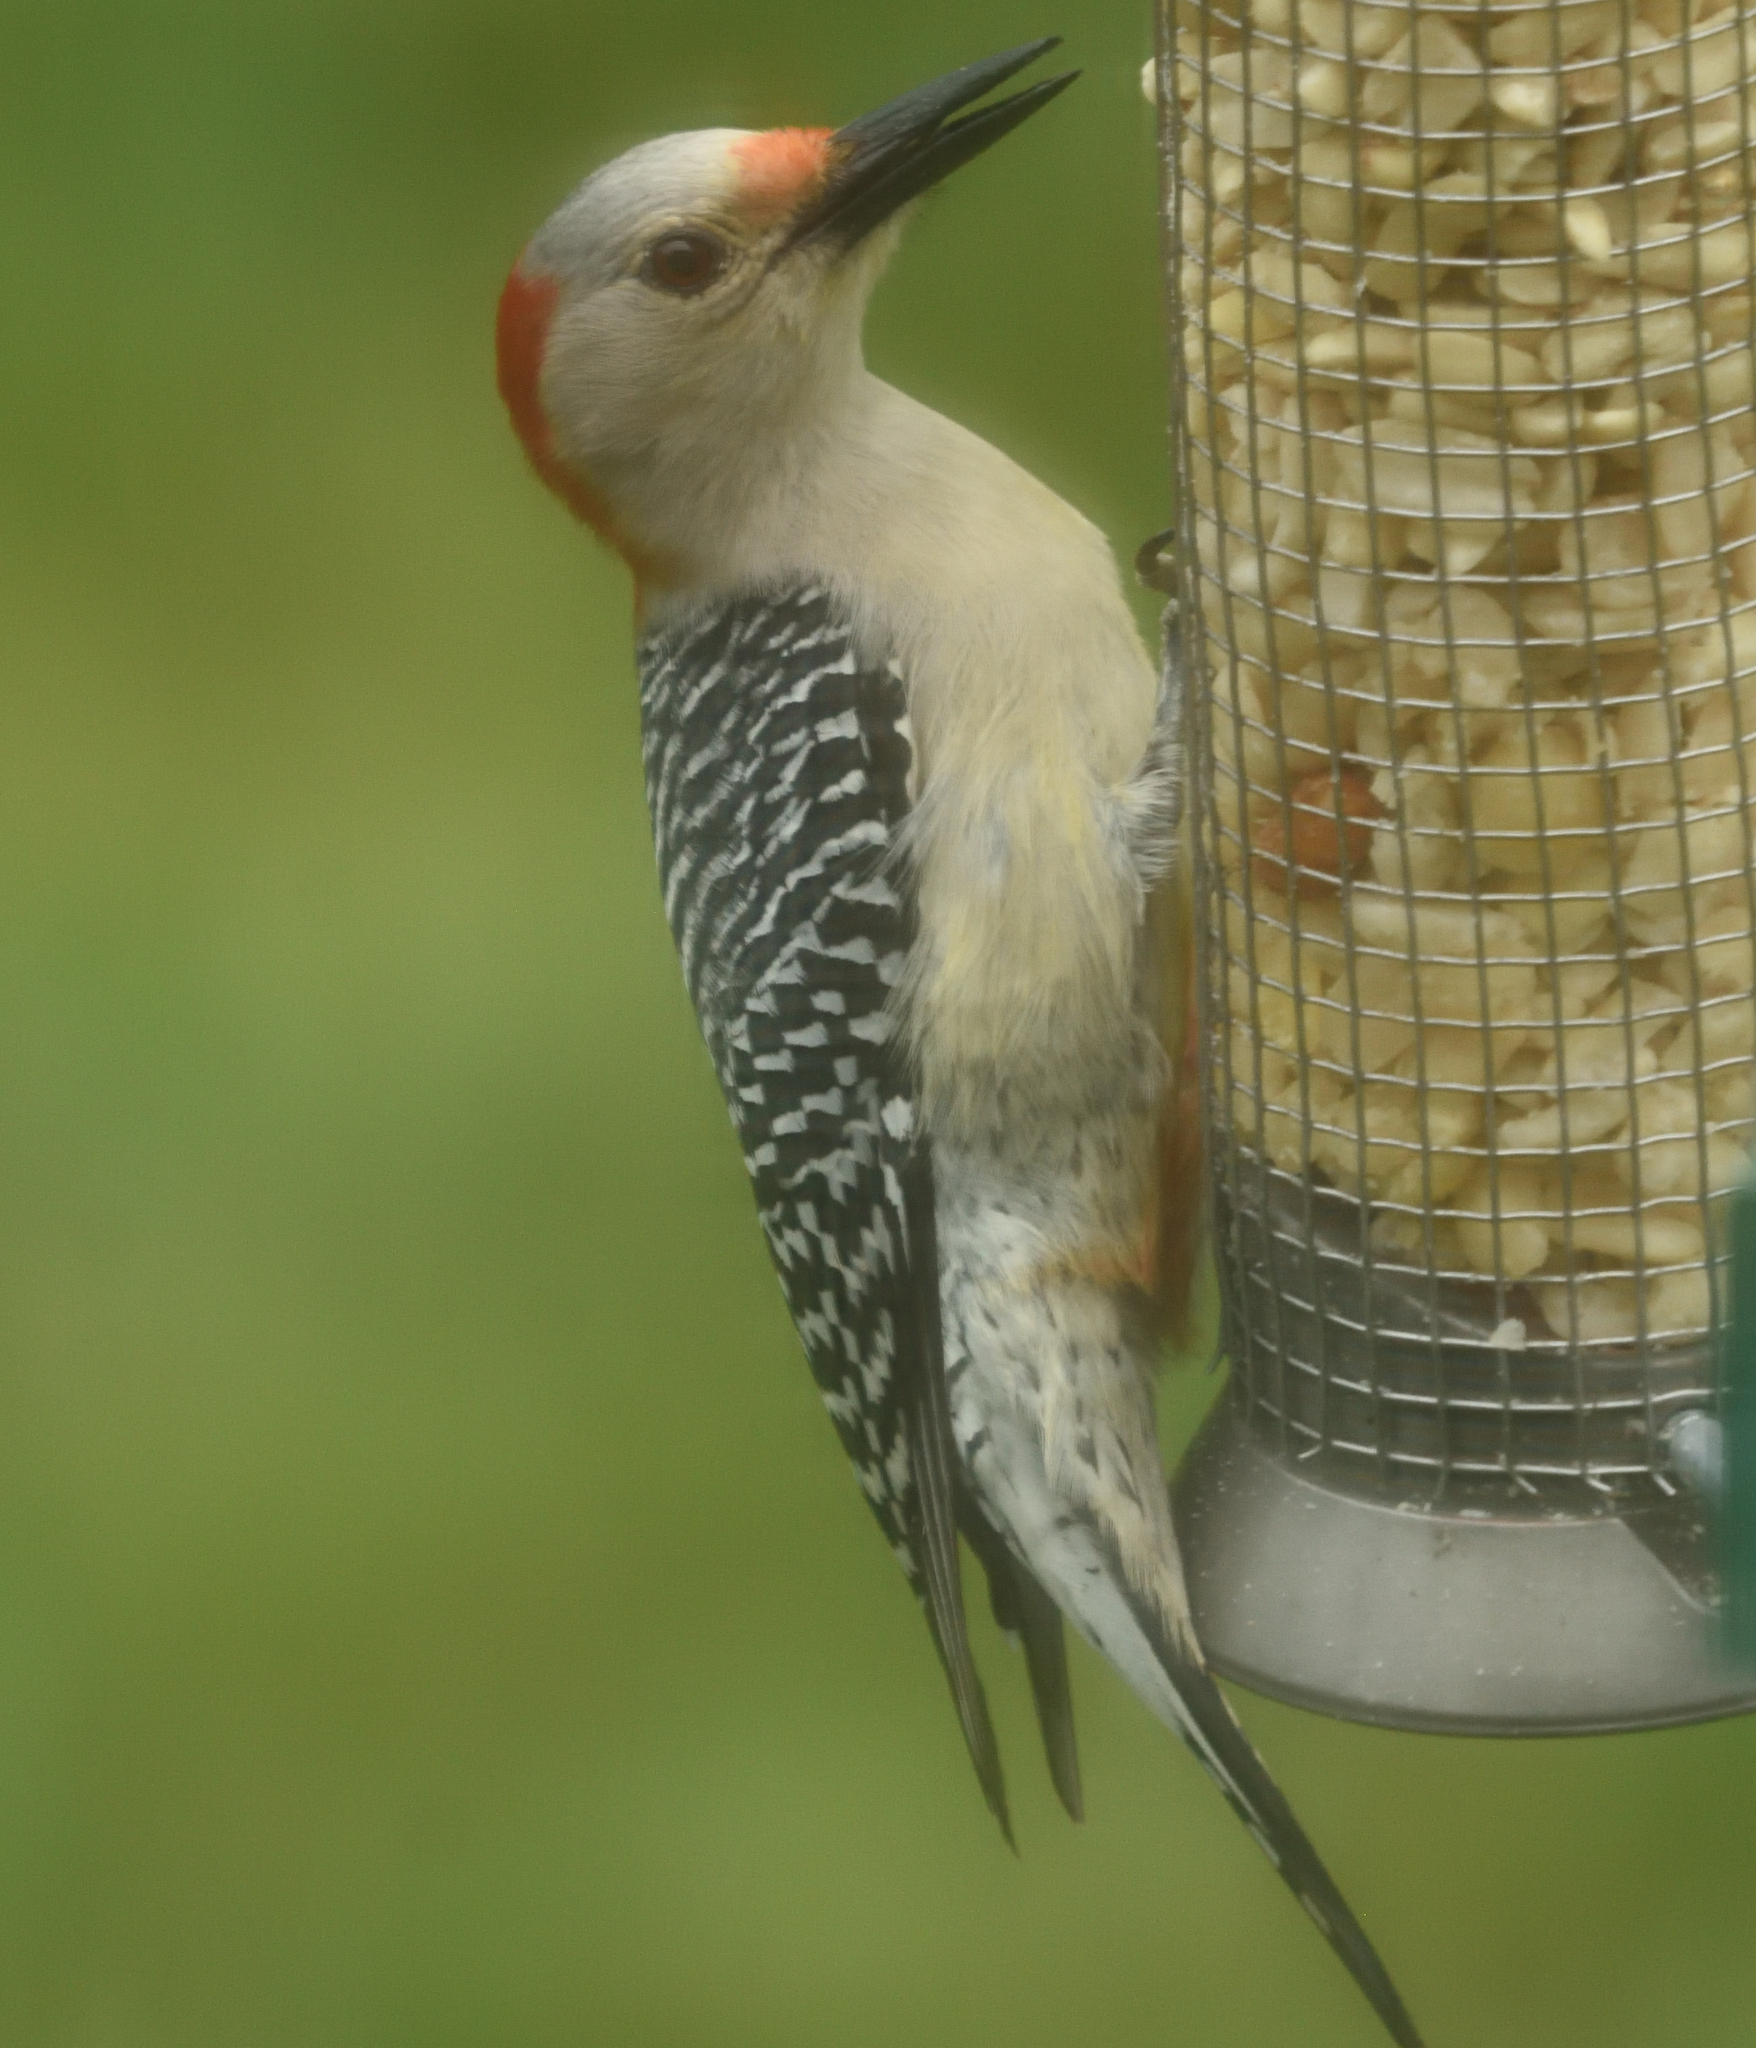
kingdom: Animalia
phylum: Chordata
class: Aves
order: Piciformes
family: Picidae
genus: Melanerpes
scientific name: Melanerpes carolinus
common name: Red-bellied woodpecker
